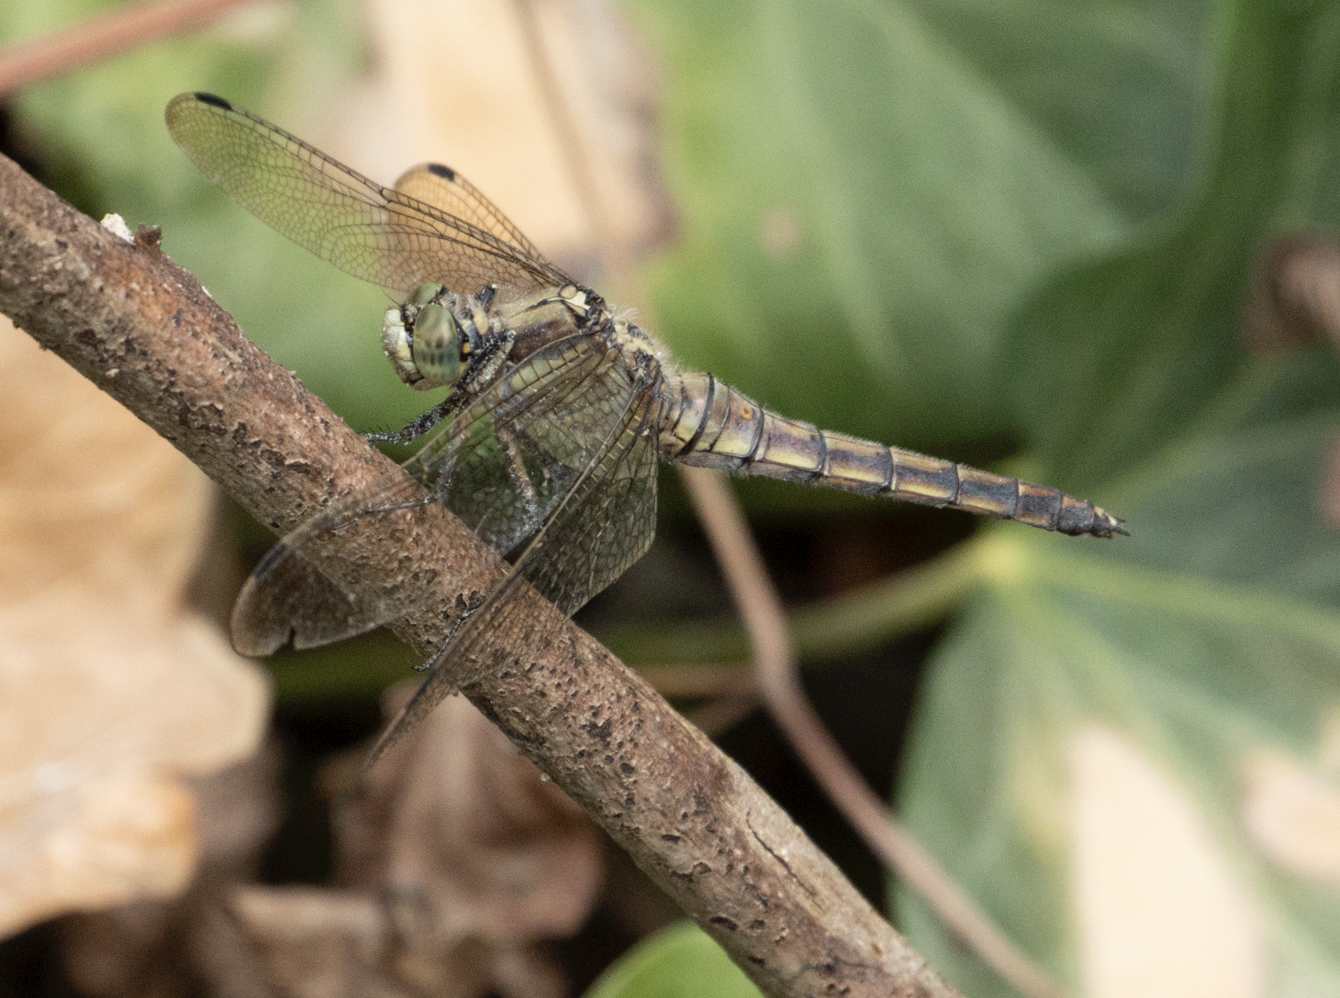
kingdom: Animalia
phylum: Arthropoda
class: Insecta
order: Odonata
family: Libellulidae
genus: Orthetrum
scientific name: Orthetrum cancellatum
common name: Black-tailed skimmer
